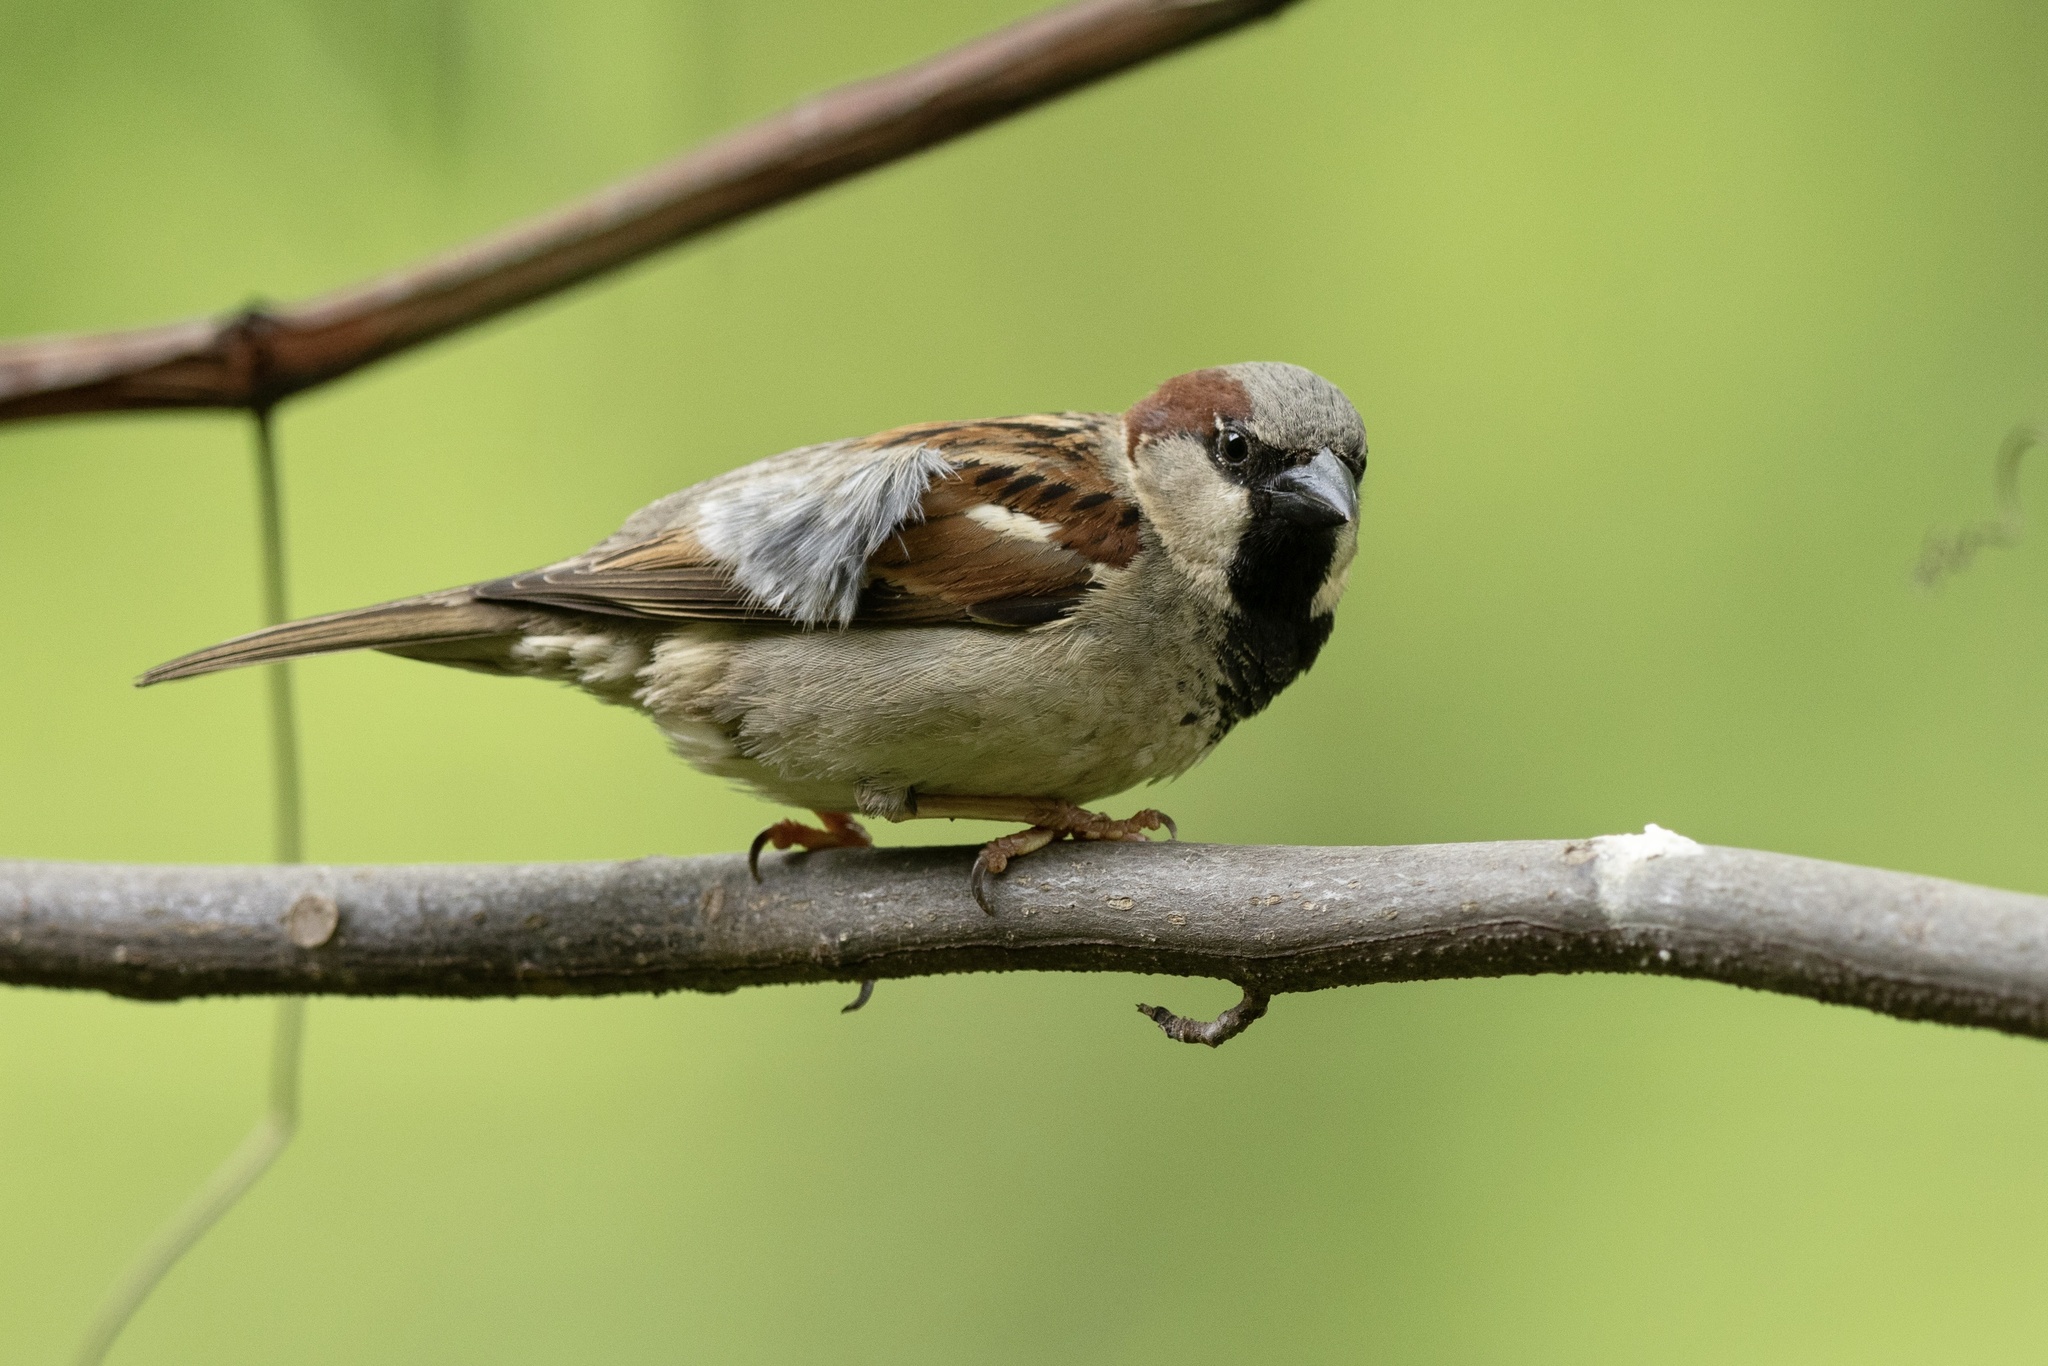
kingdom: Animalia
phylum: Chordata
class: Aves
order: Passeriformes
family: Passeridae
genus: Passer
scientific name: Passer domesticus
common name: House sparrow
